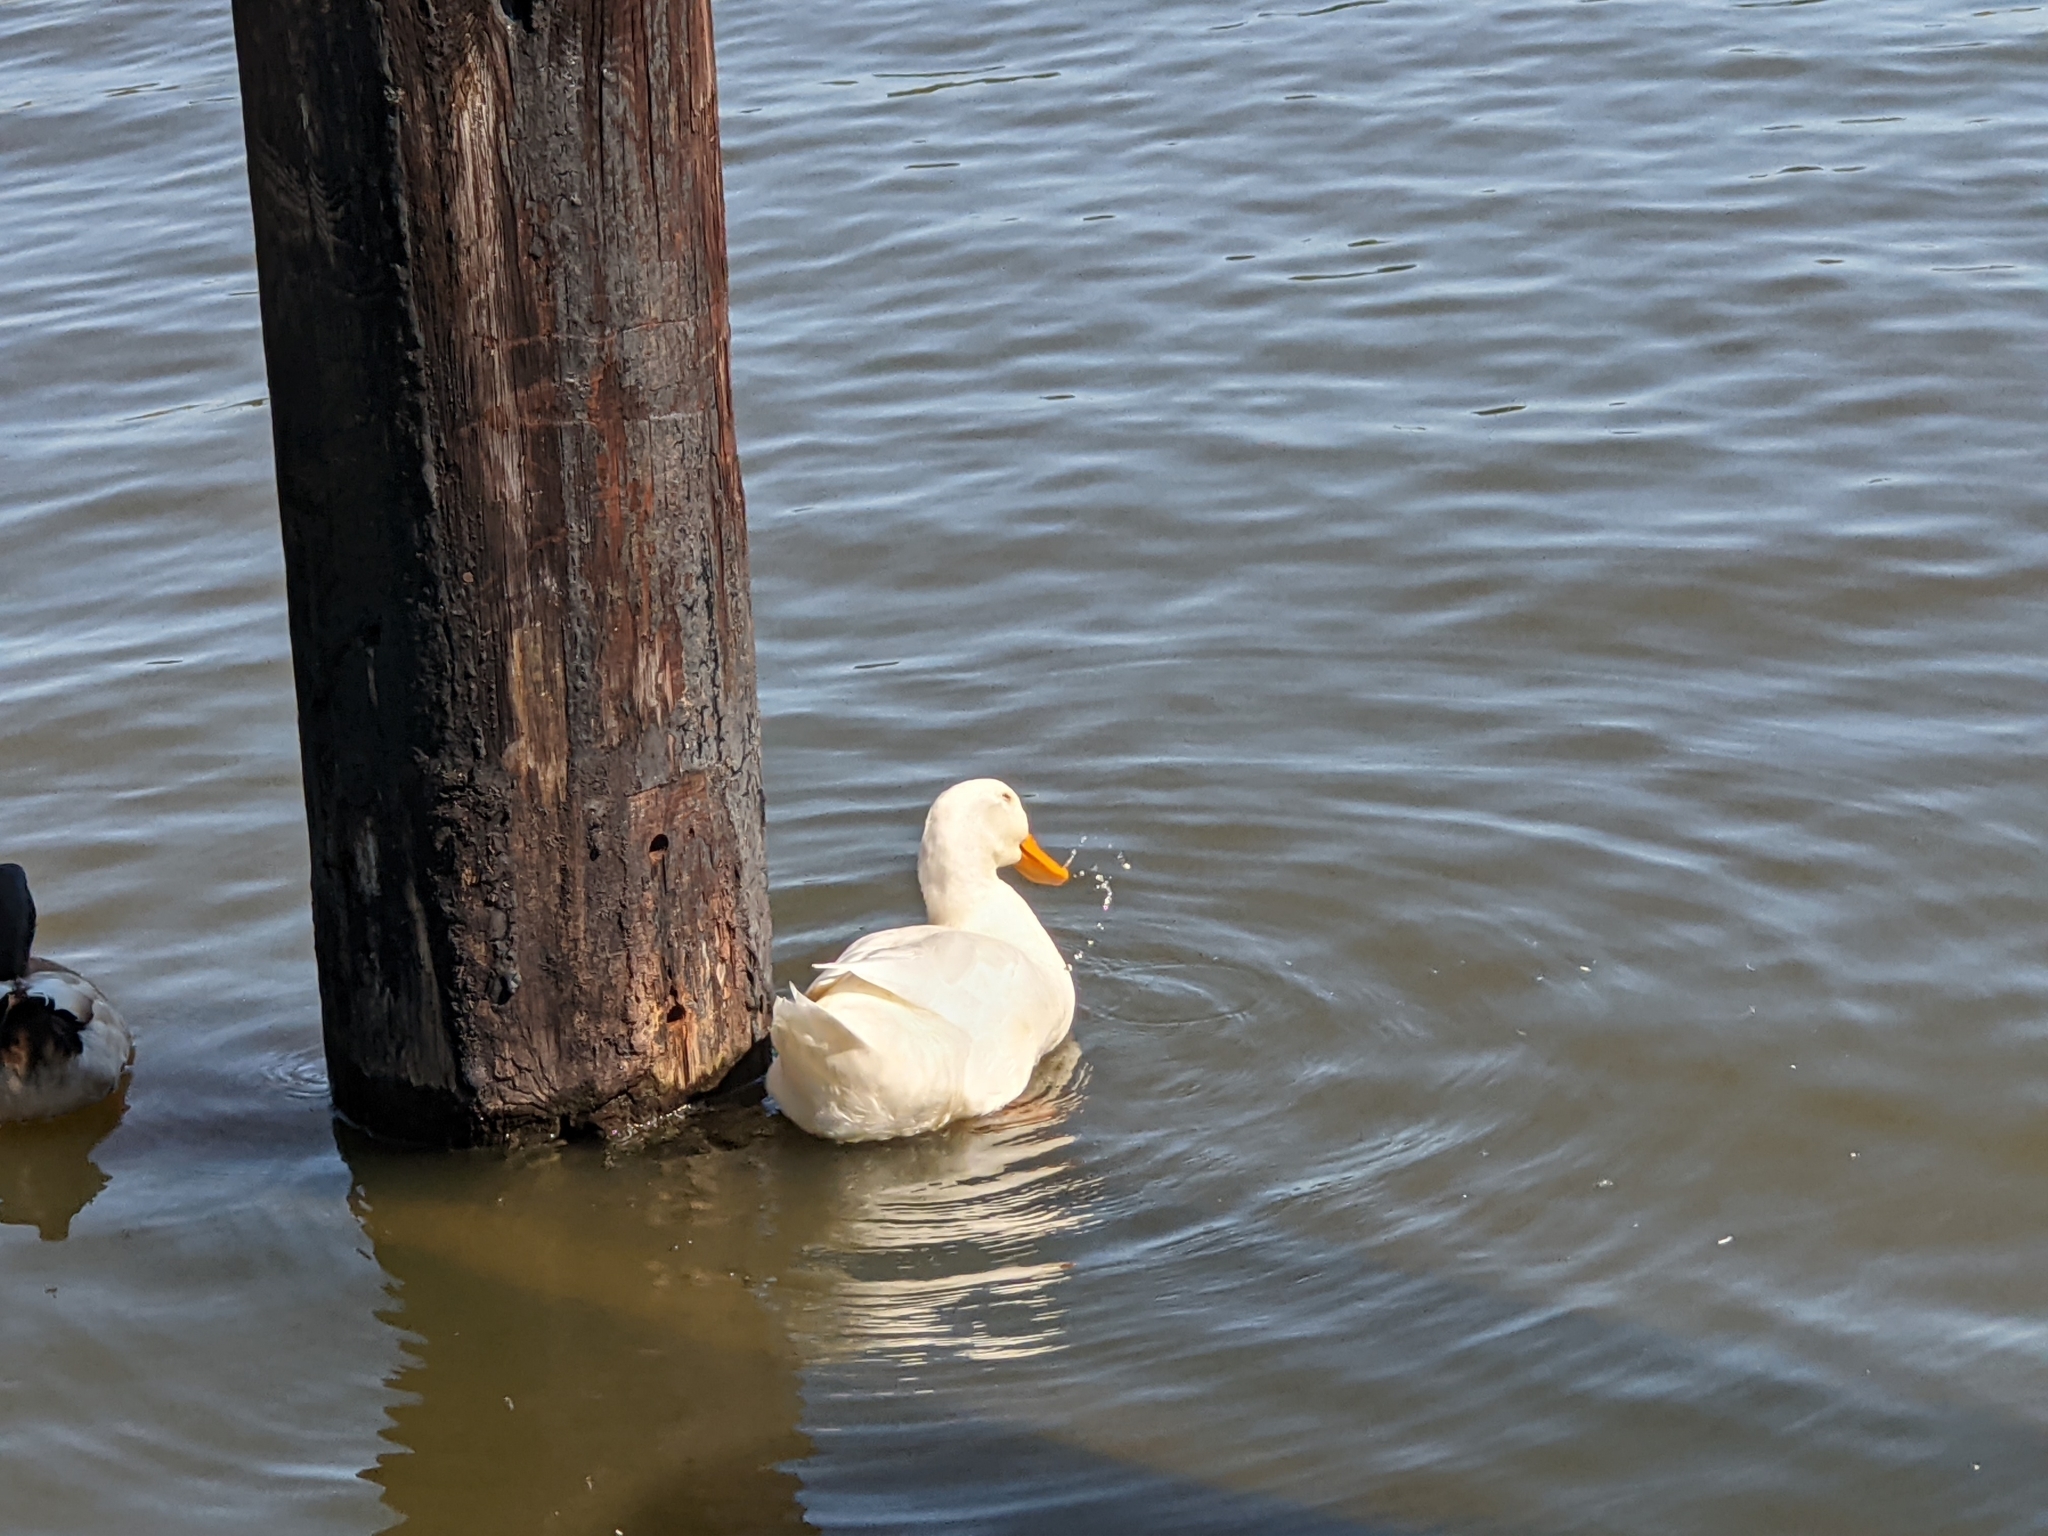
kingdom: Animalia
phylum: Chordata
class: Aves
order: Anseriformes
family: Anatidae
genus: Anas
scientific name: Anas platyrhynchos
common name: Mallard
